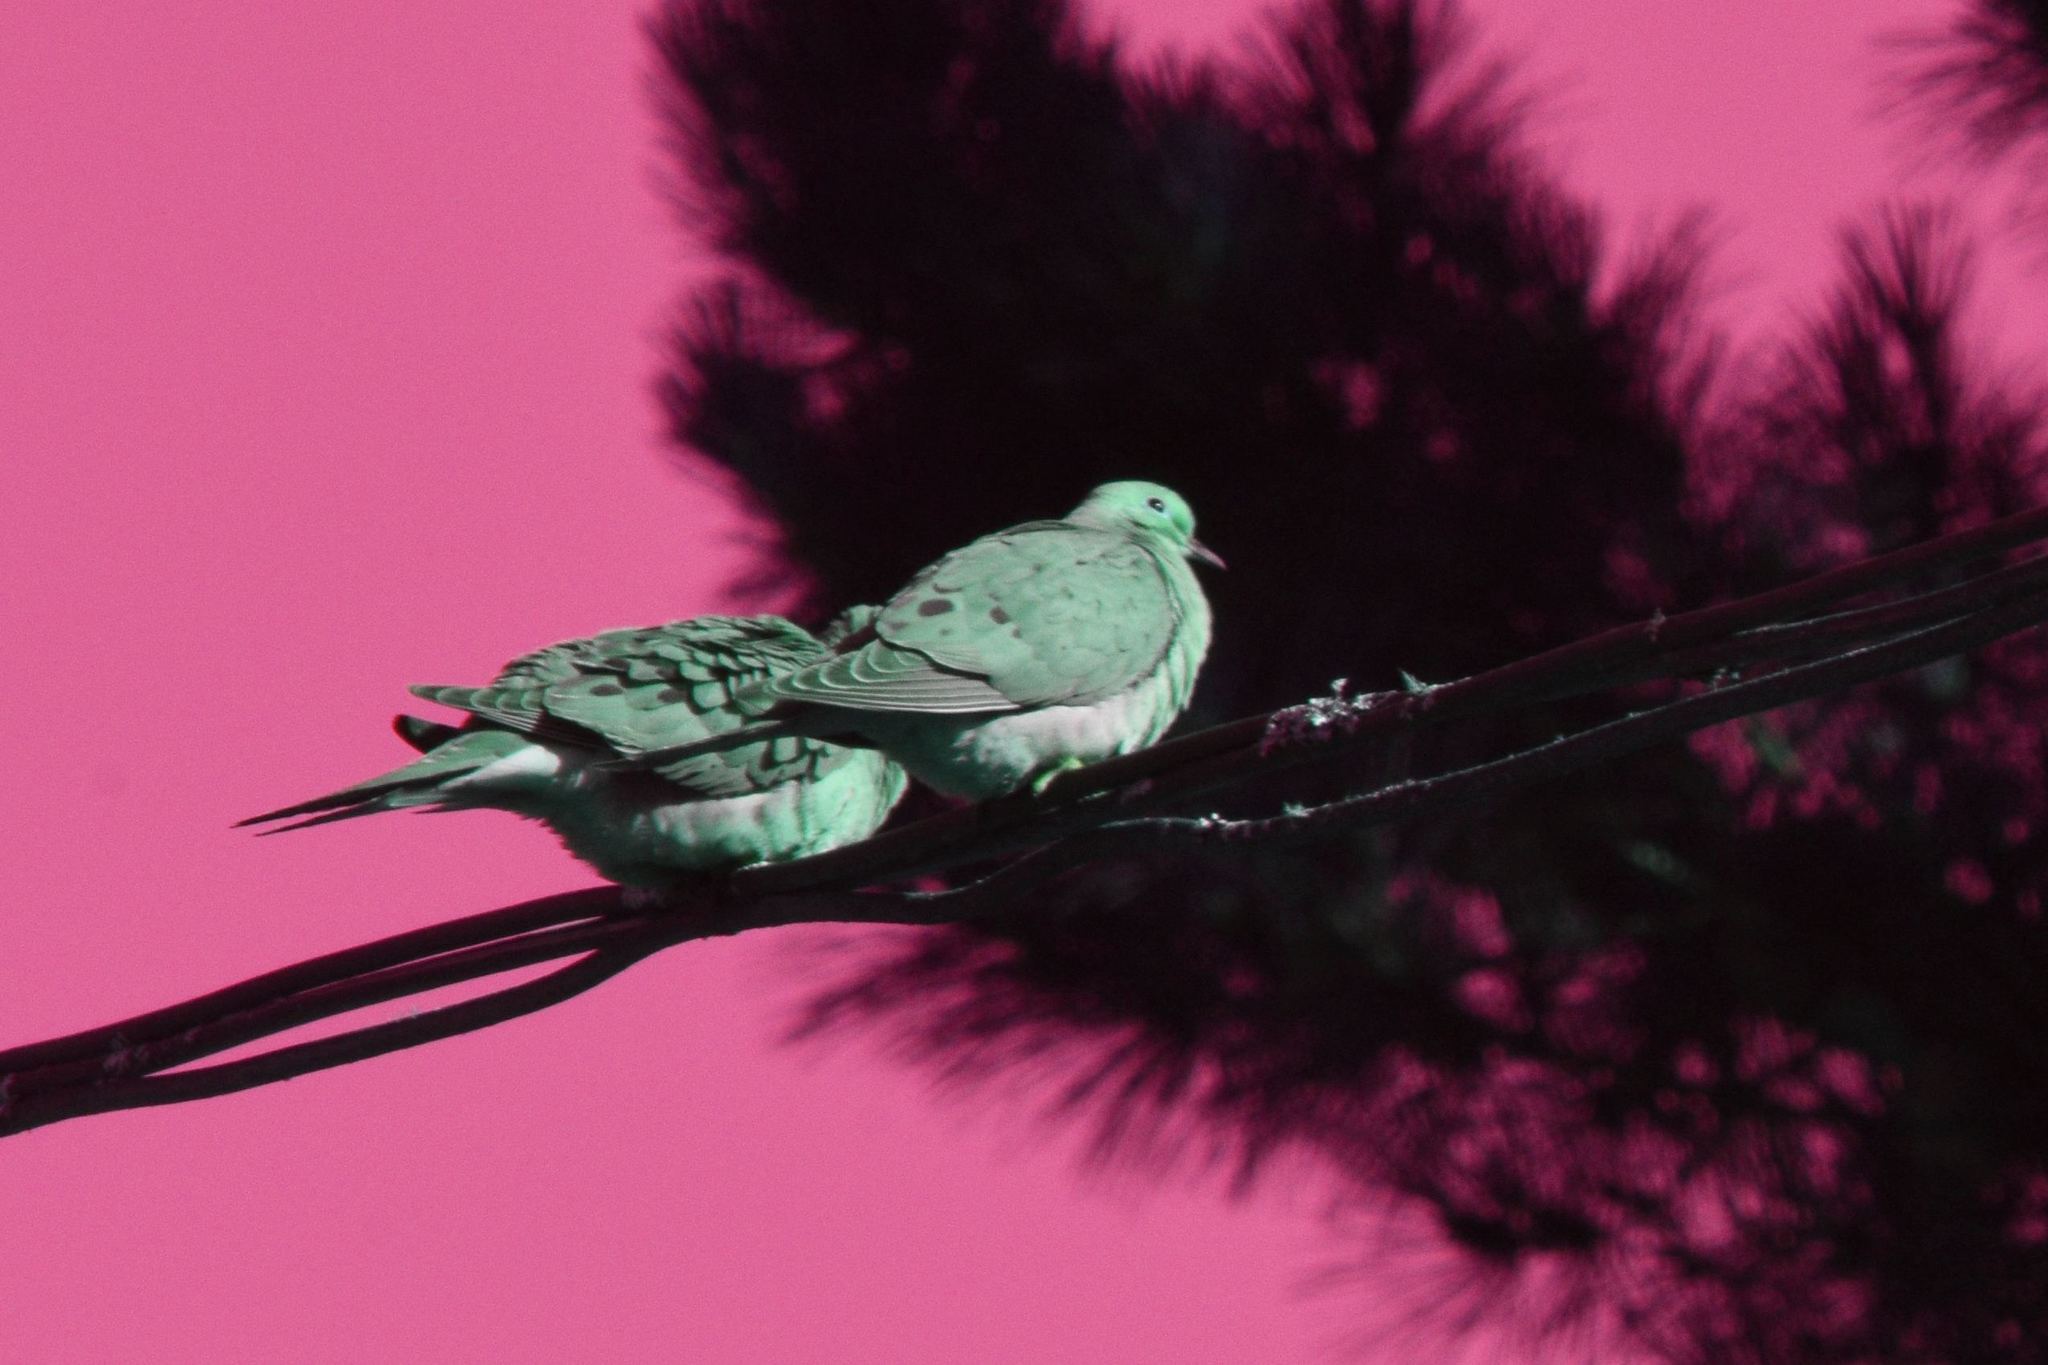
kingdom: Animalia
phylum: Chordata
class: Aves
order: Columbiformes
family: Columbidae
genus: Zenaida
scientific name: Zenaida macroura
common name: Mourning dove
